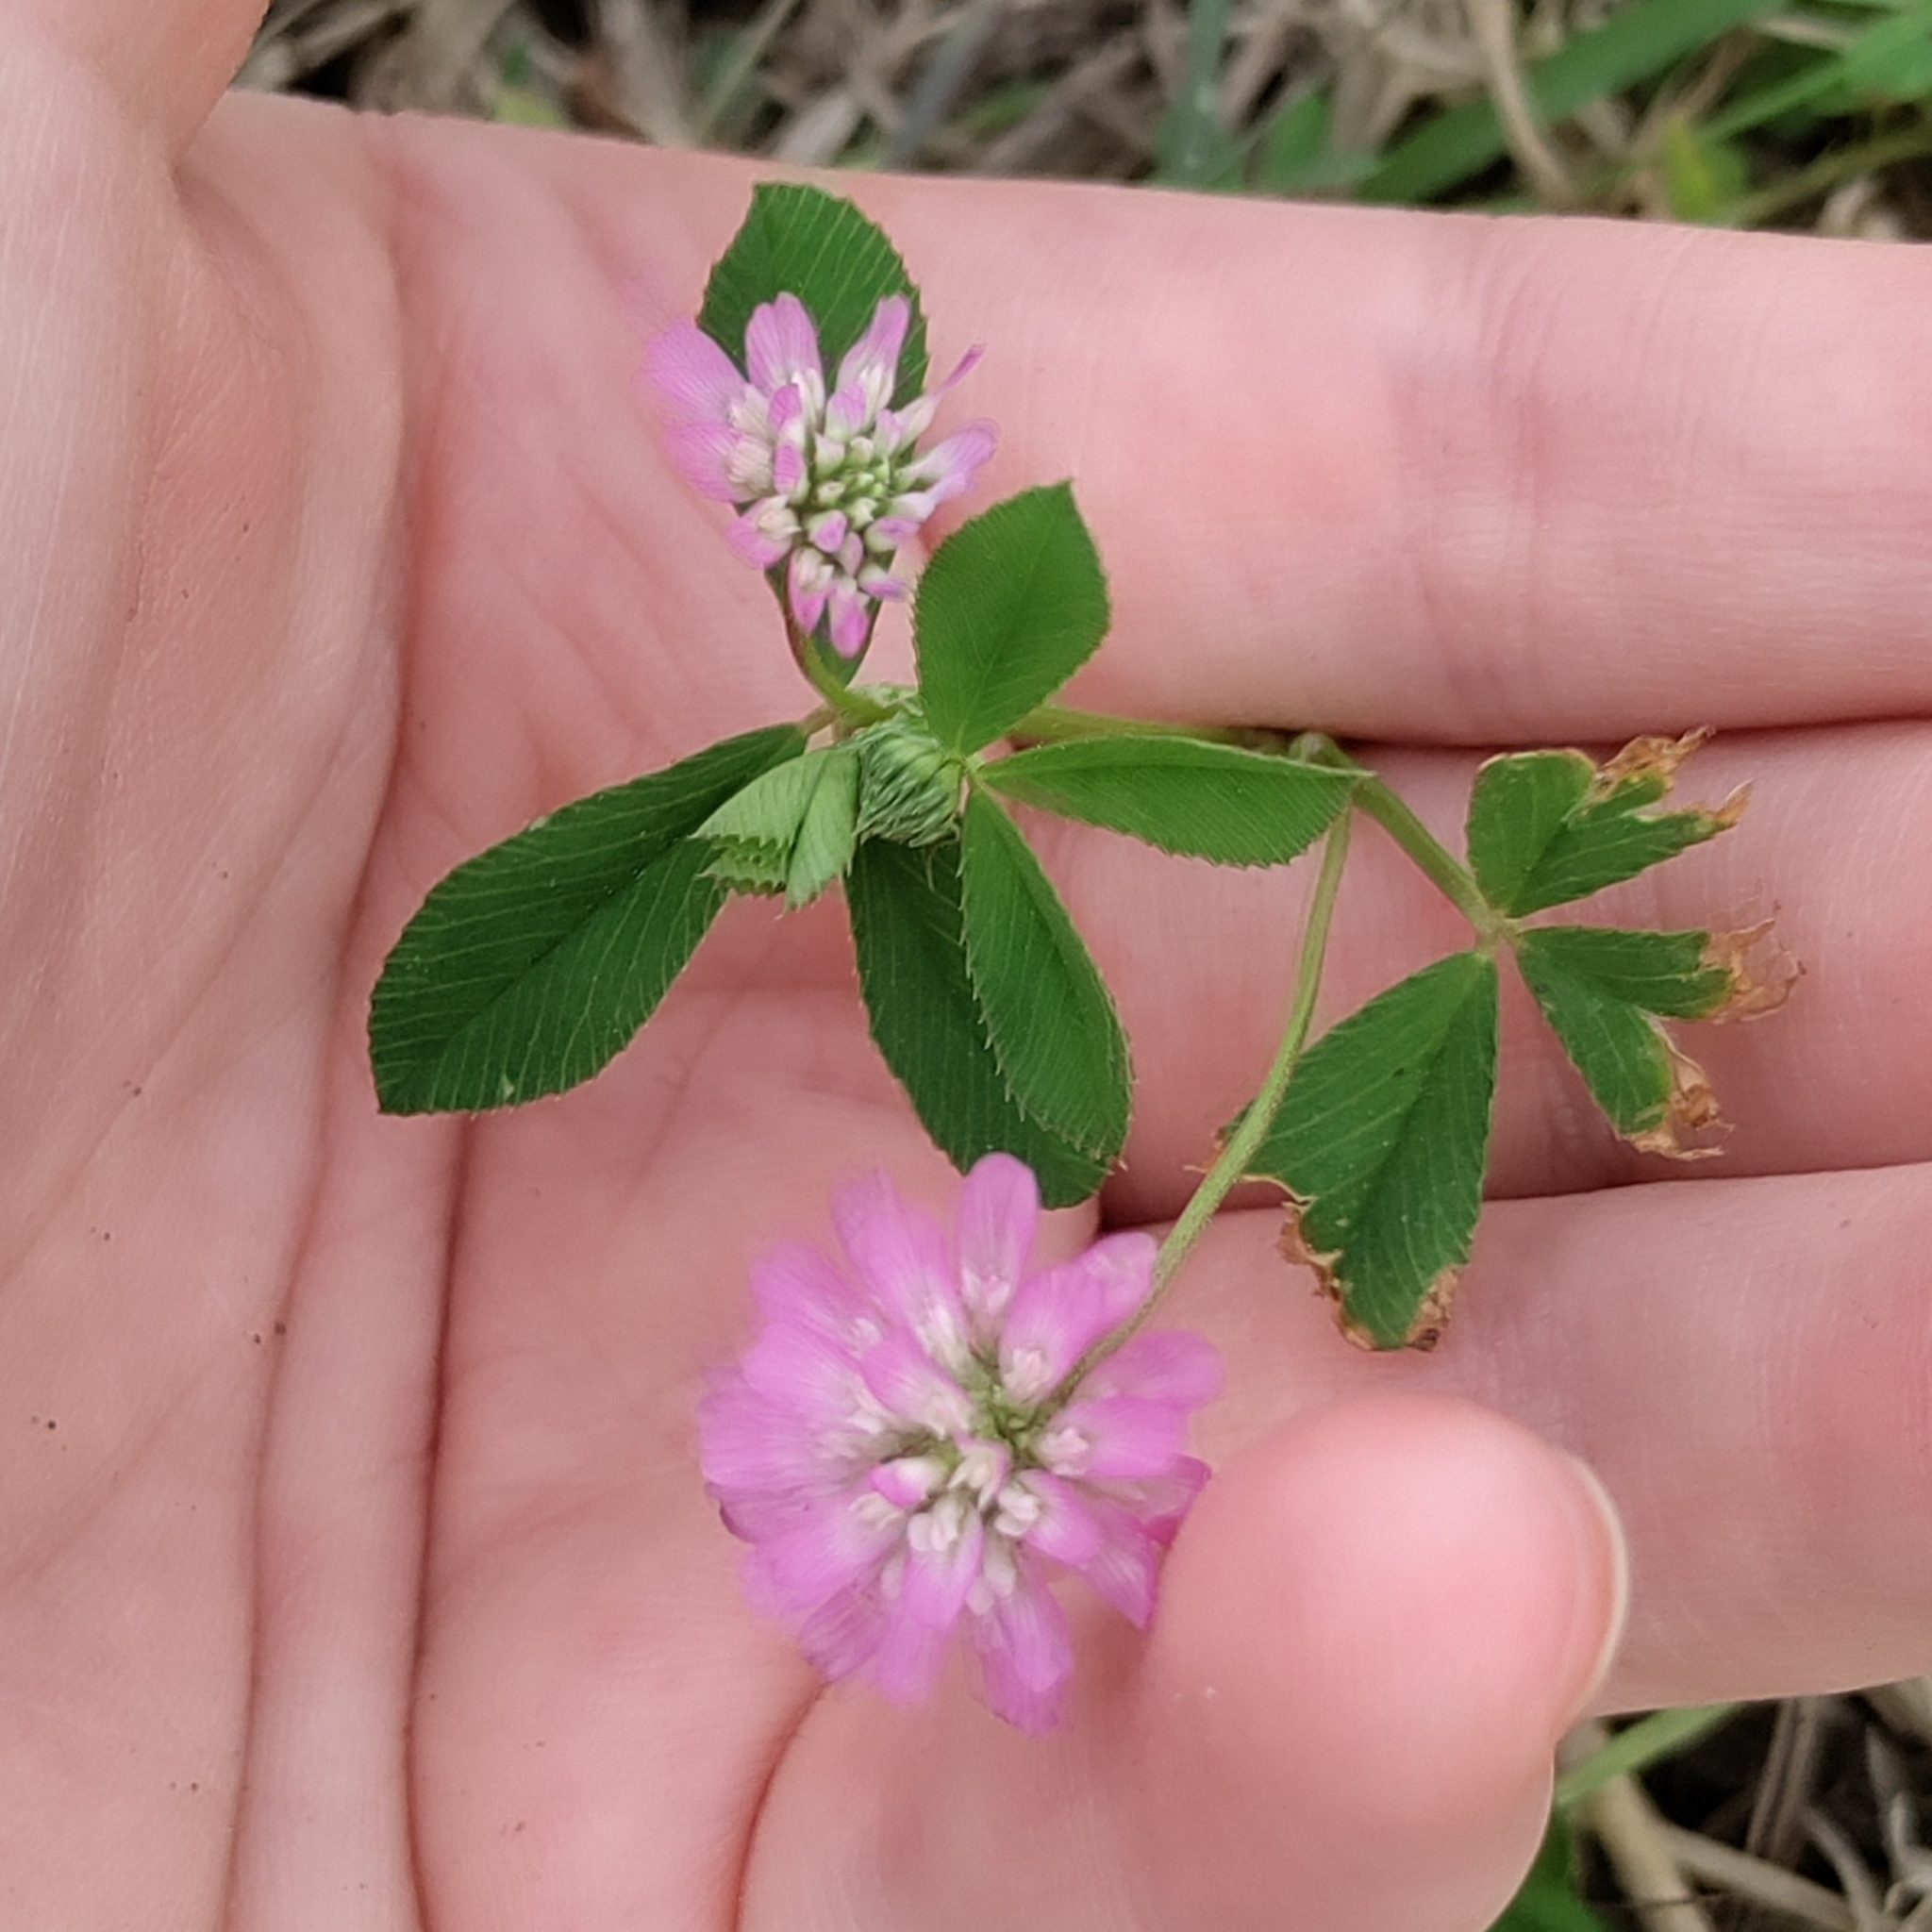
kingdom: Plantae
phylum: Tracheophyta
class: Magnoliopsida
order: Fabales
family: Fabaceae
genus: Trifolium
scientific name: Trifolium resupinatum
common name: Reversed clover
